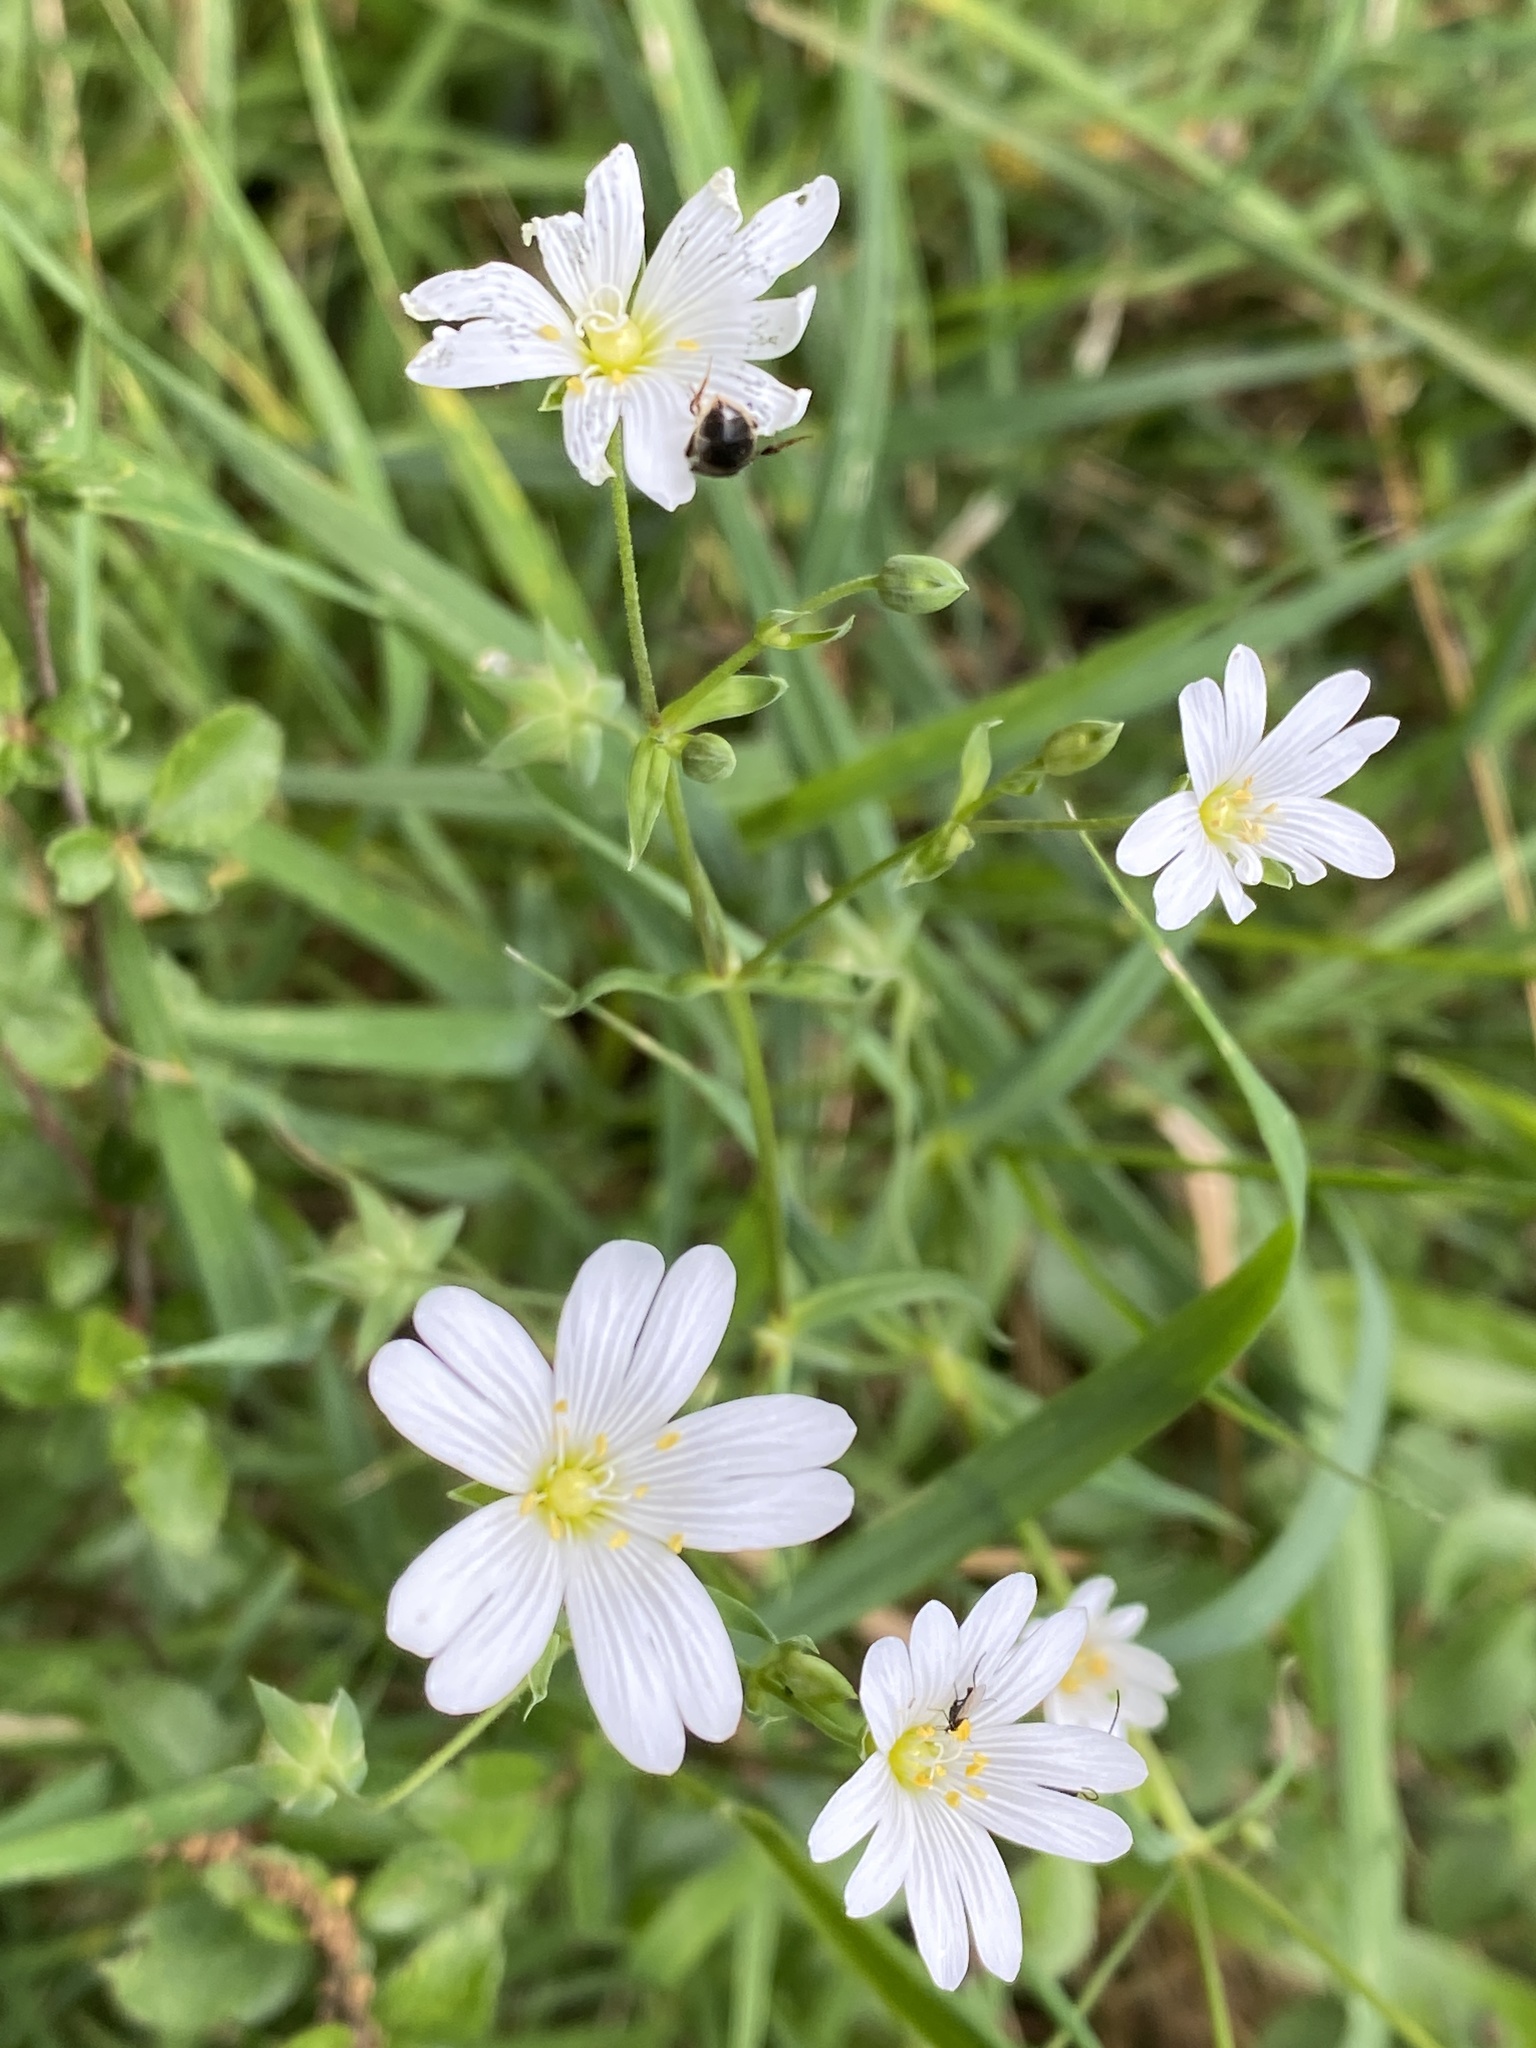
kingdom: Plantae
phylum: Tracheophyta
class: Magnoliopsida
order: Caryophyllales
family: Caryophyllaceae
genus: Rabelera
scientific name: Rabelera holostea
